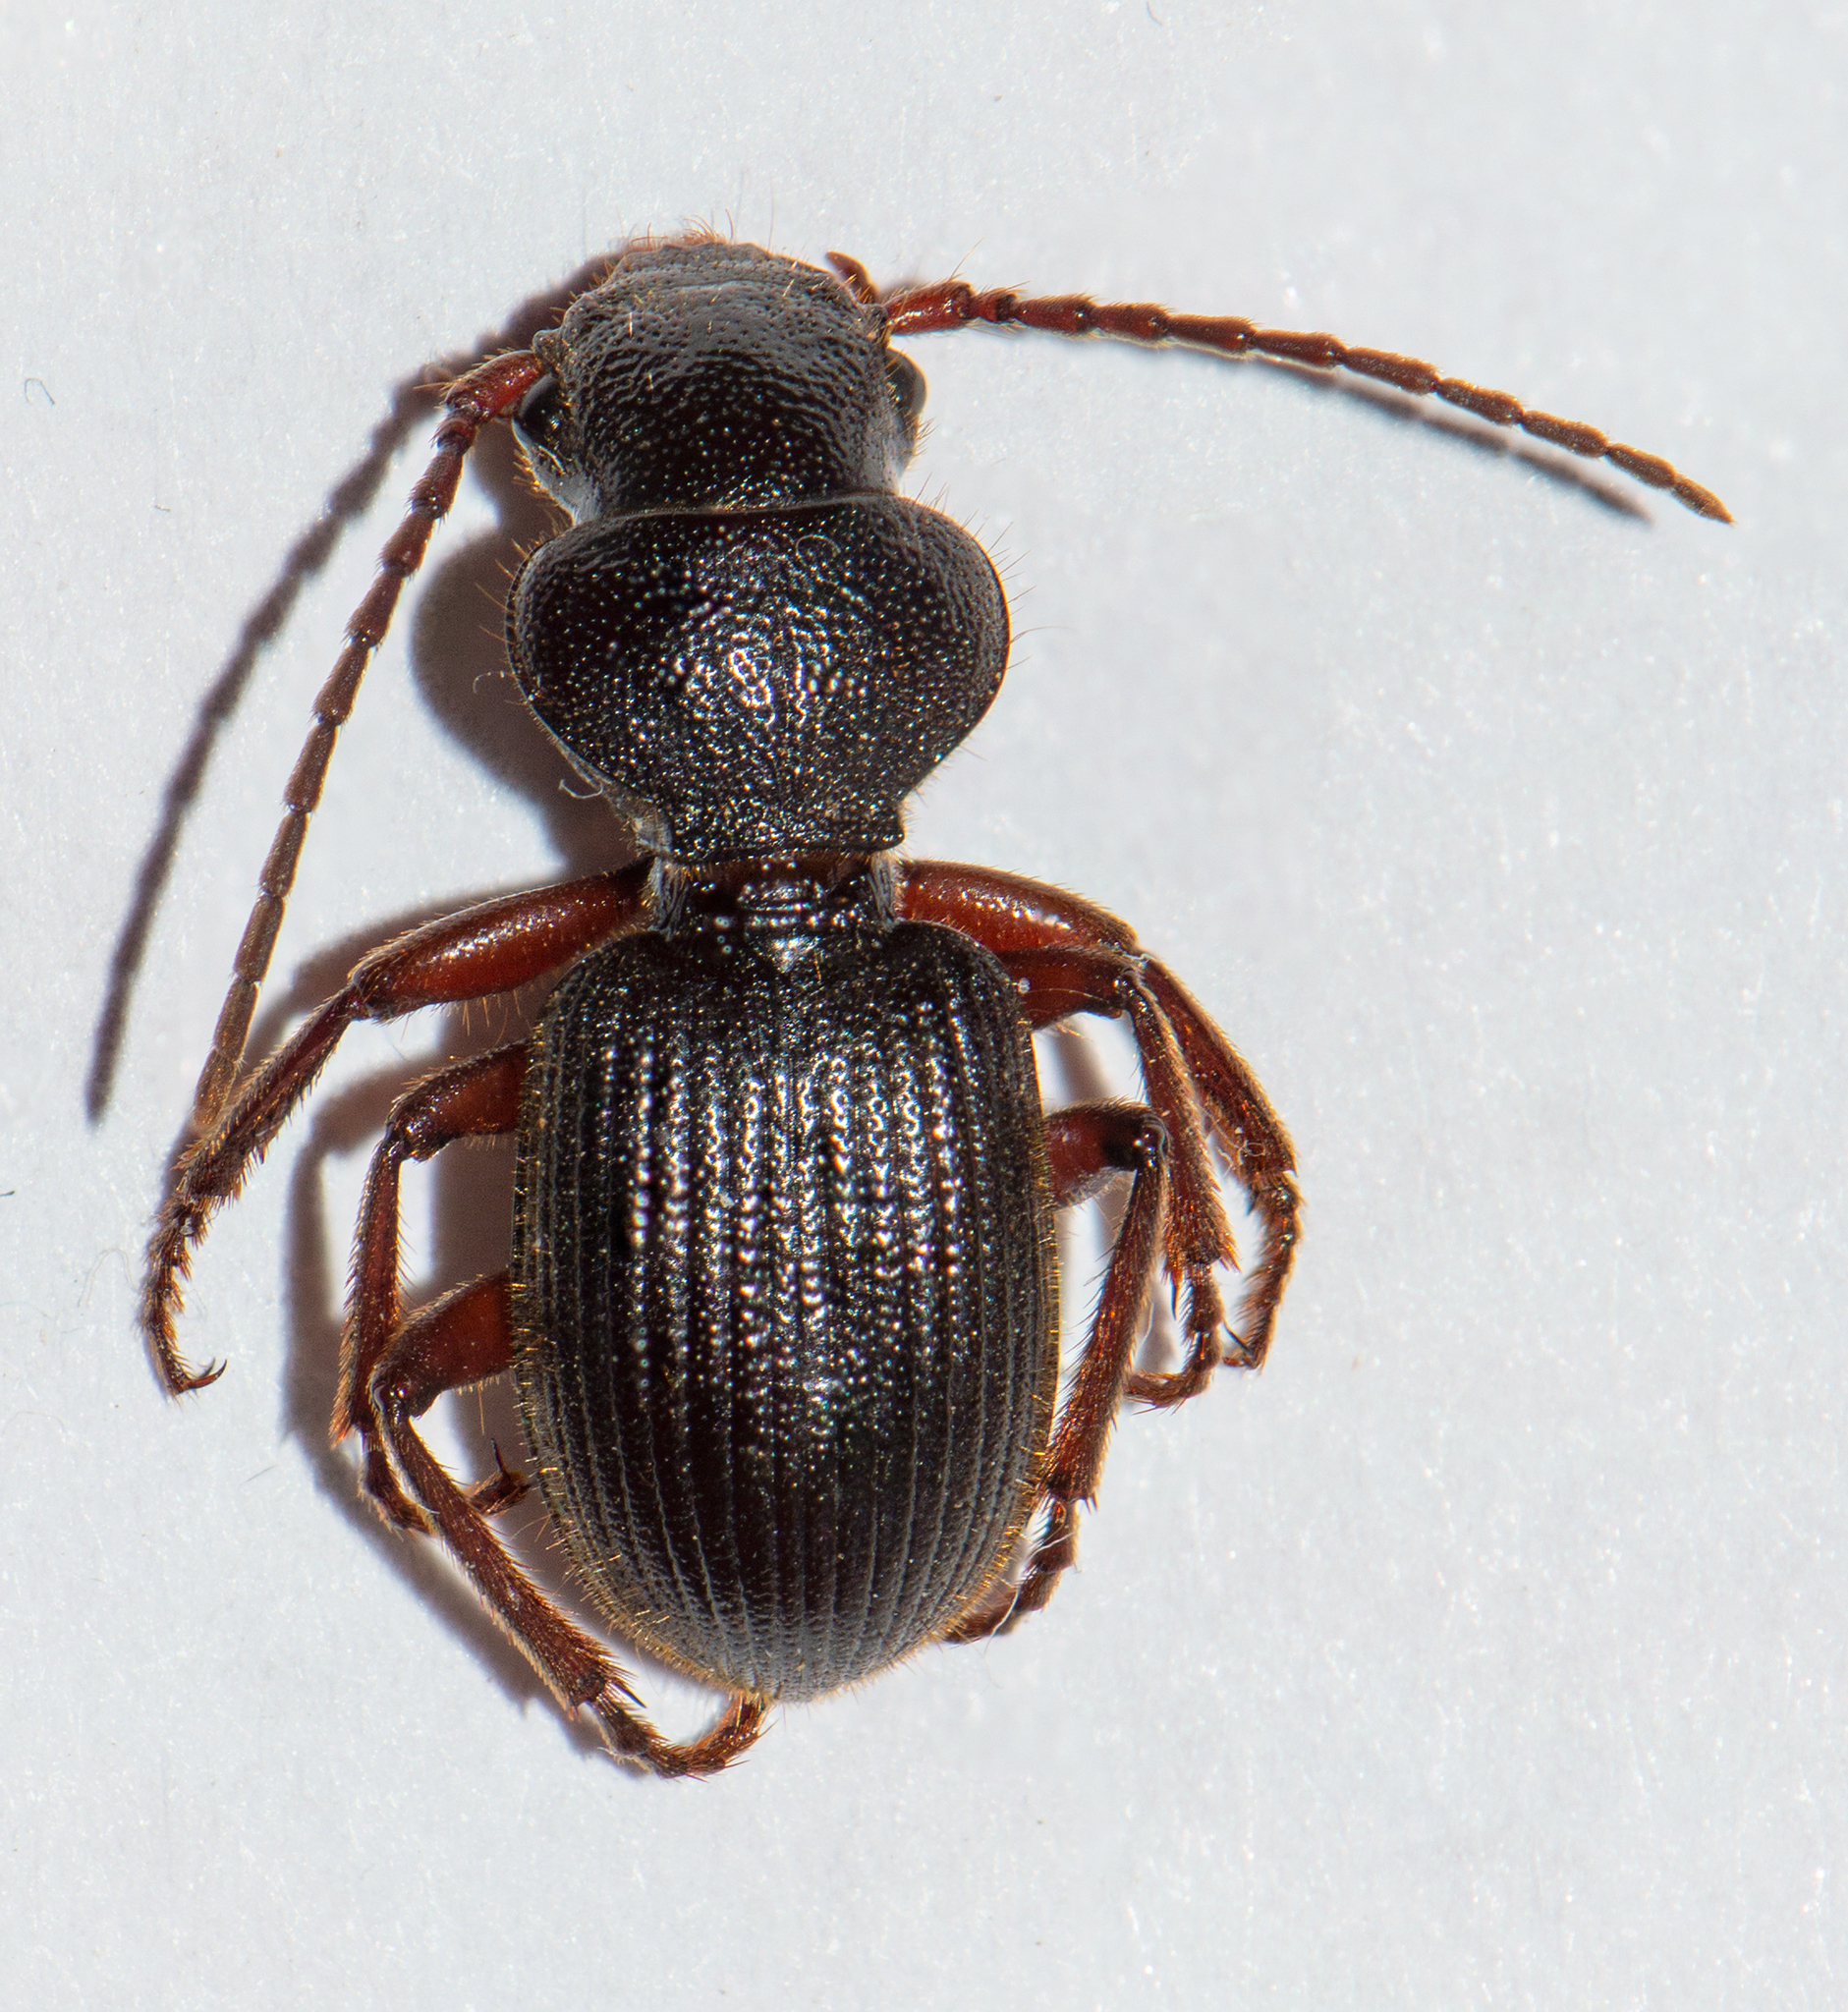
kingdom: Animalia
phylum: Arthropoda
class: Insecta
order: Coleoptera
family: Carabidae
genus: Odotoncarus
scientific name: Odotoncarus robustus
